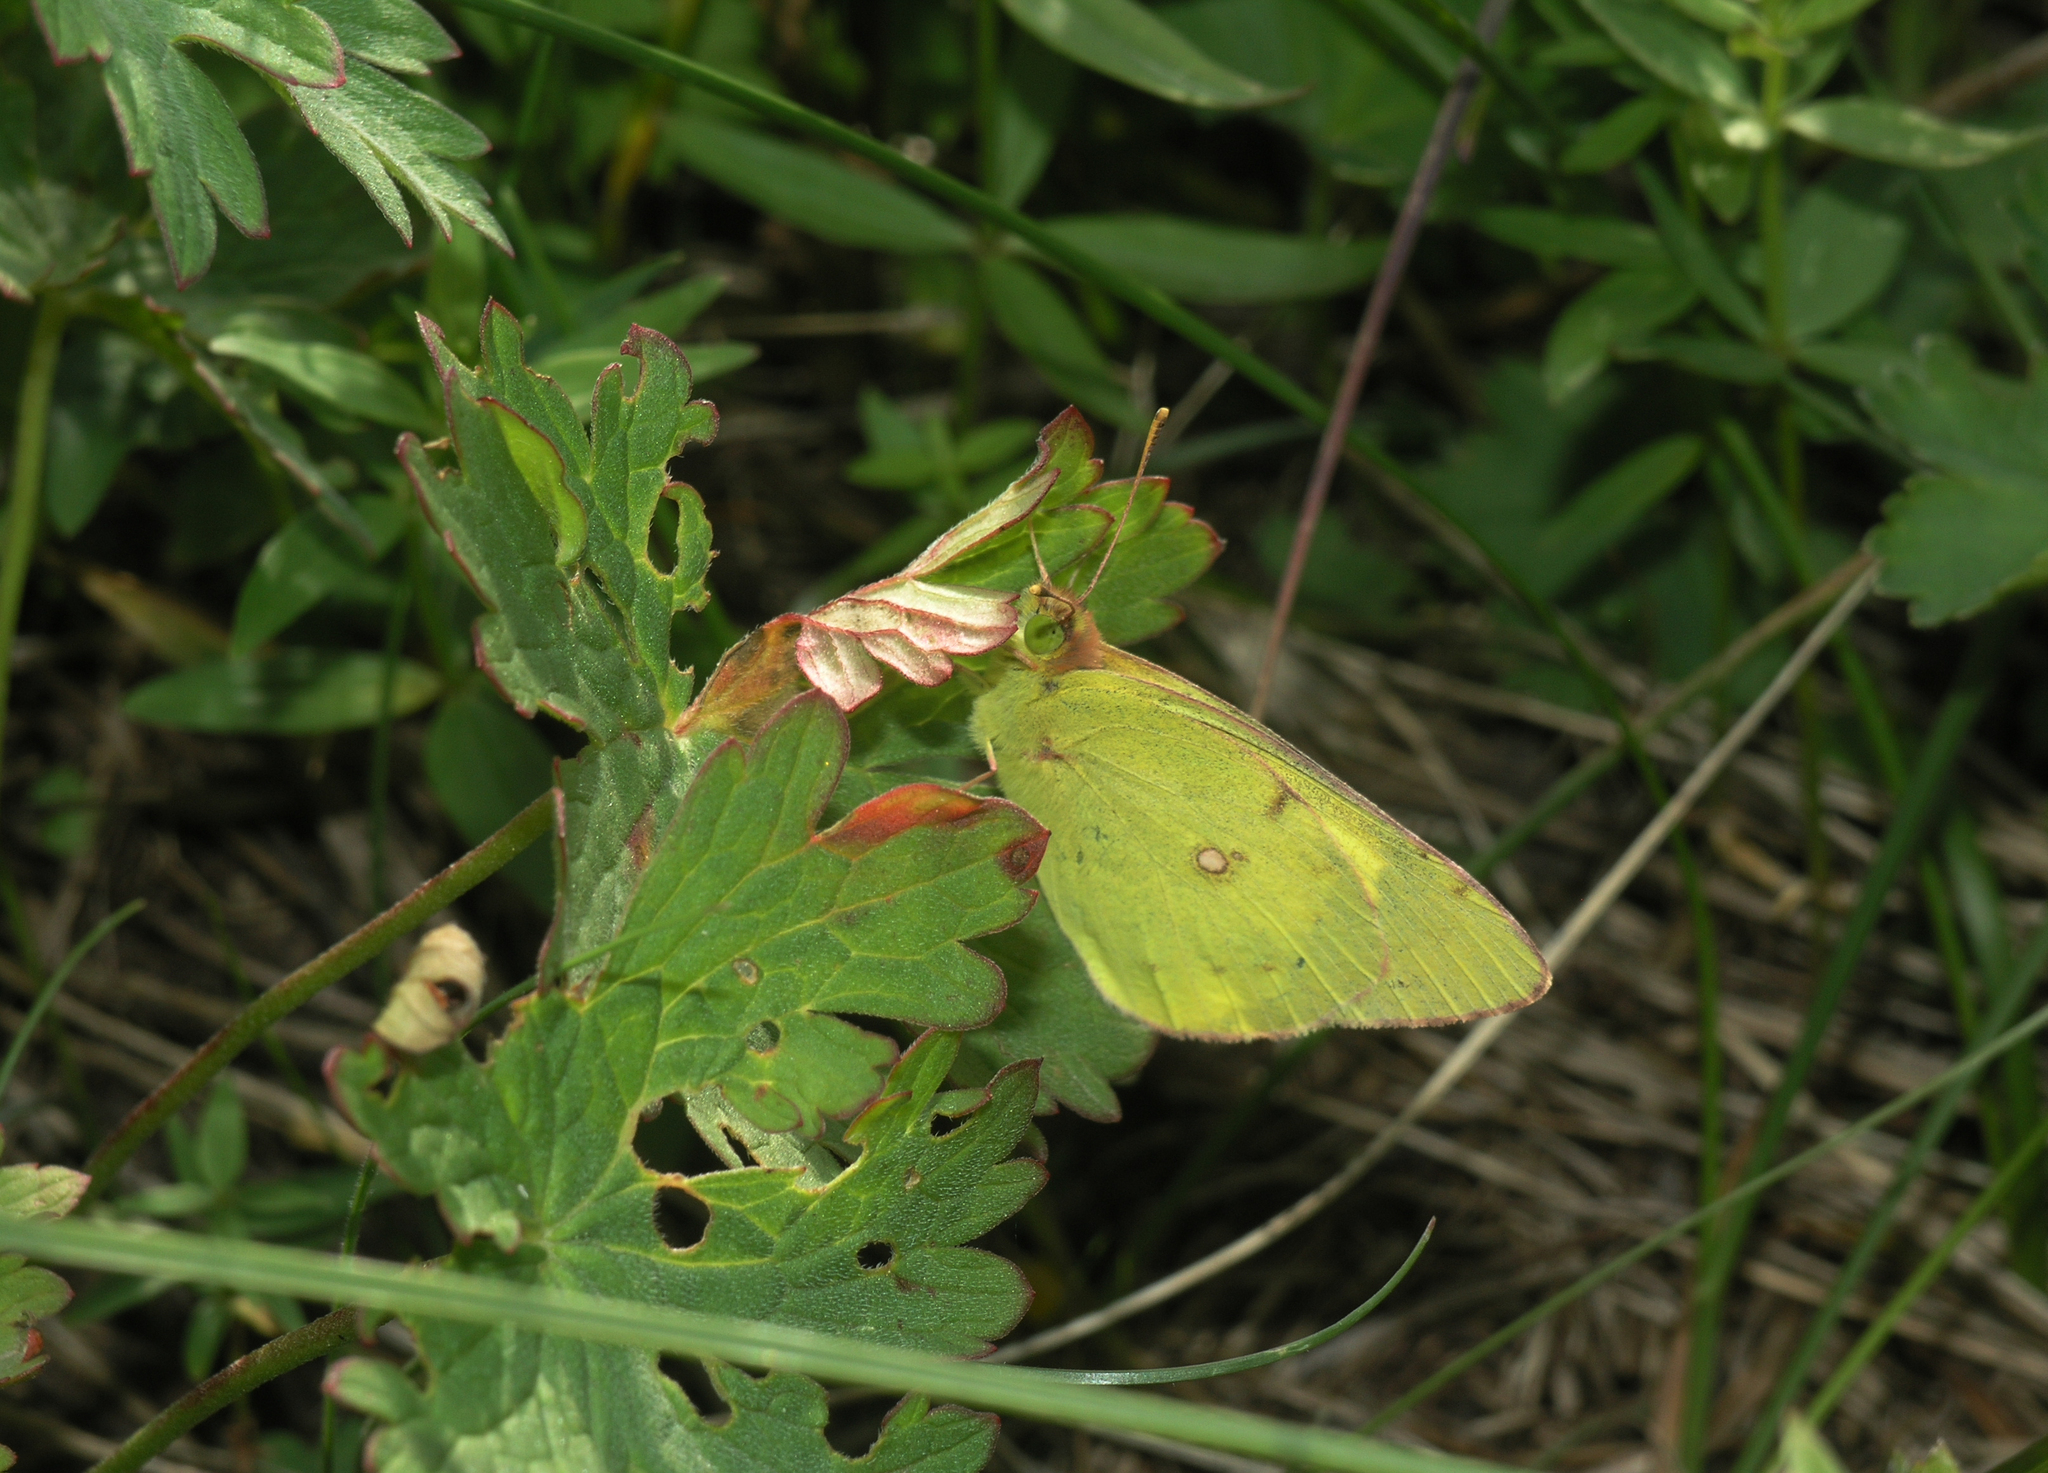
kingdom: Animalia
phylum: Arthropoda
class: Insecta
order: Lepidoptera
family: Pieridae
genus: Colias
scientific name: Colias erate
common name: Eastern pale clouded yellow
